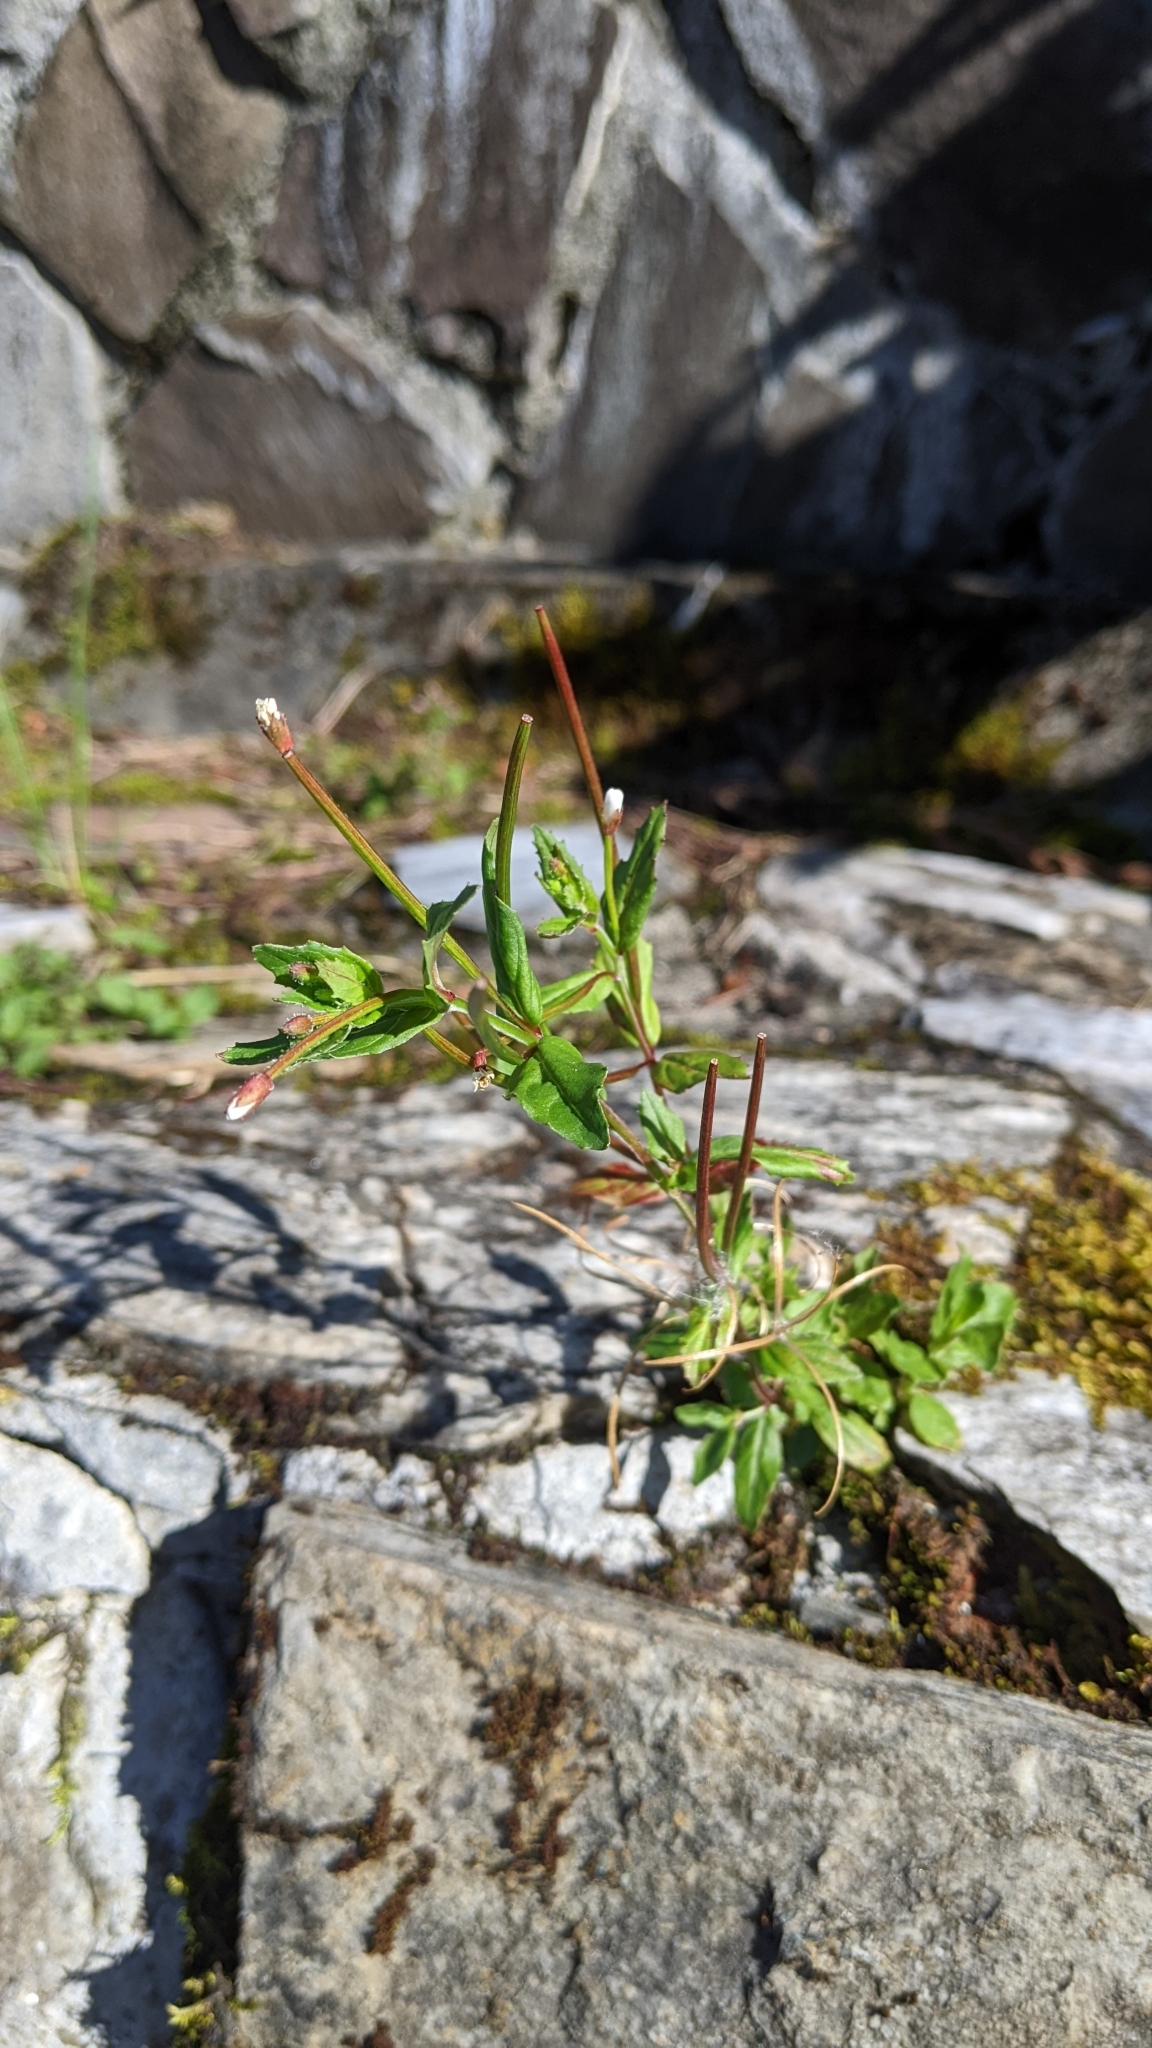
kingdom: Plantae
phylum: Tracheophyta
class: Magnoliopsida
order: Myrtales
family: Onagraceae
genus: Epilobium
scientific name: Epilobium amurense
